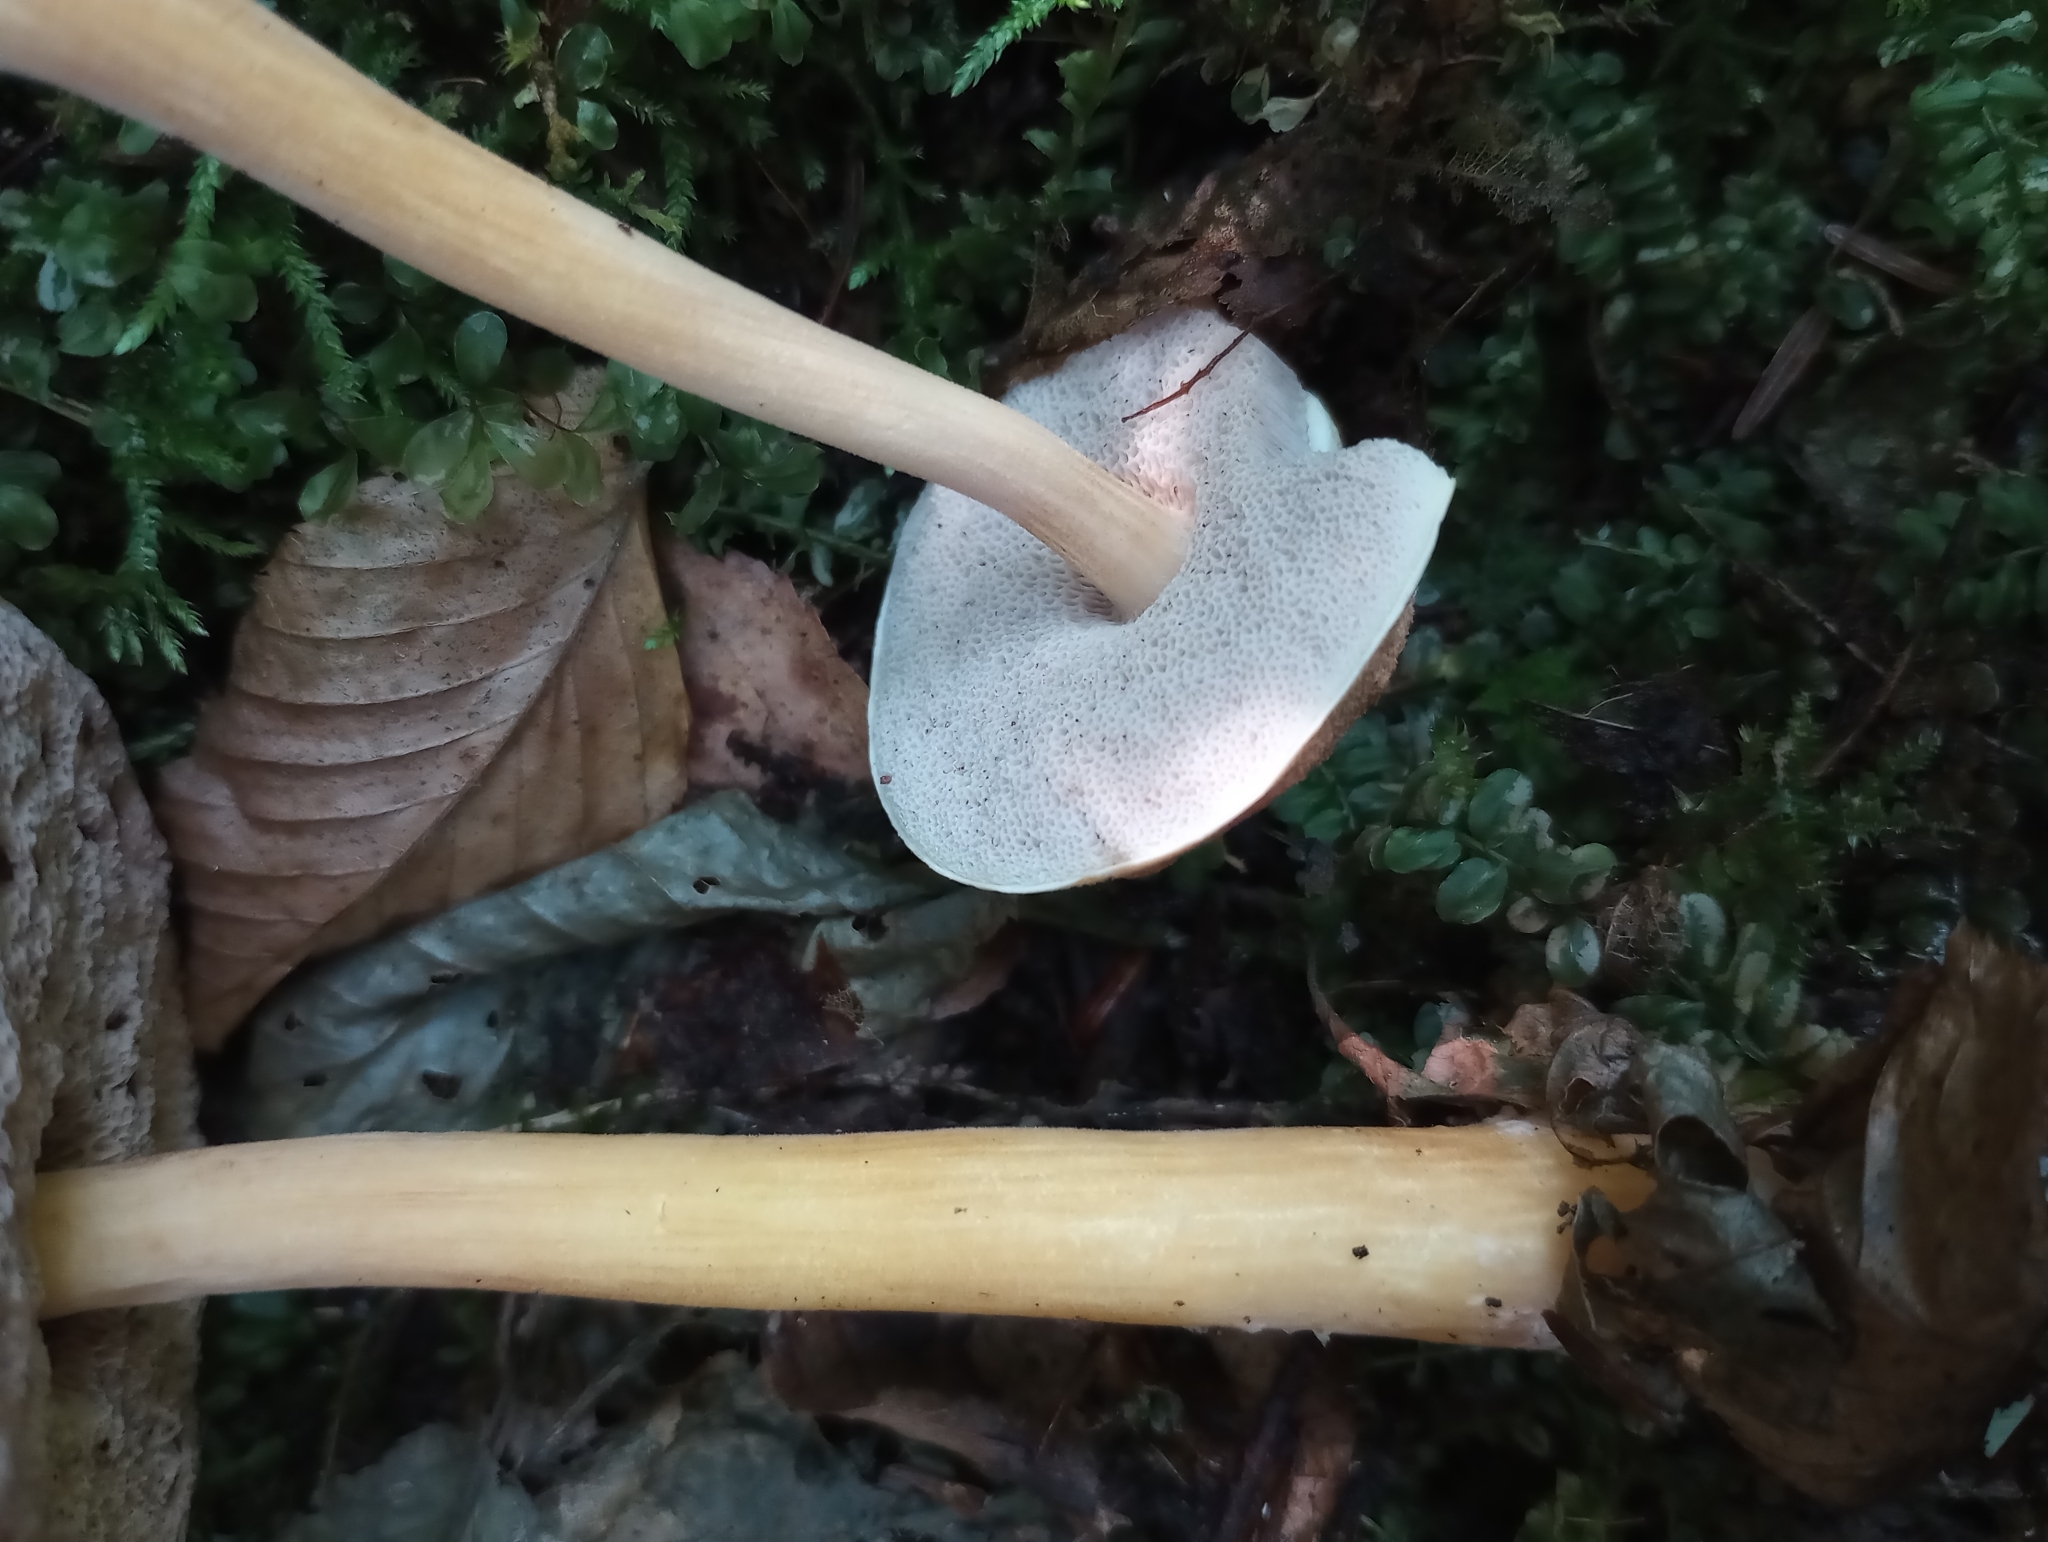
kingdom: Fungi
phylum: Basidiomycota
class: Agaricomycetes
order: Boletales
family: Boletaceae
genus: Austroboletus
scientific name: Austroboletus gracilis
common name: Graceful bolete
